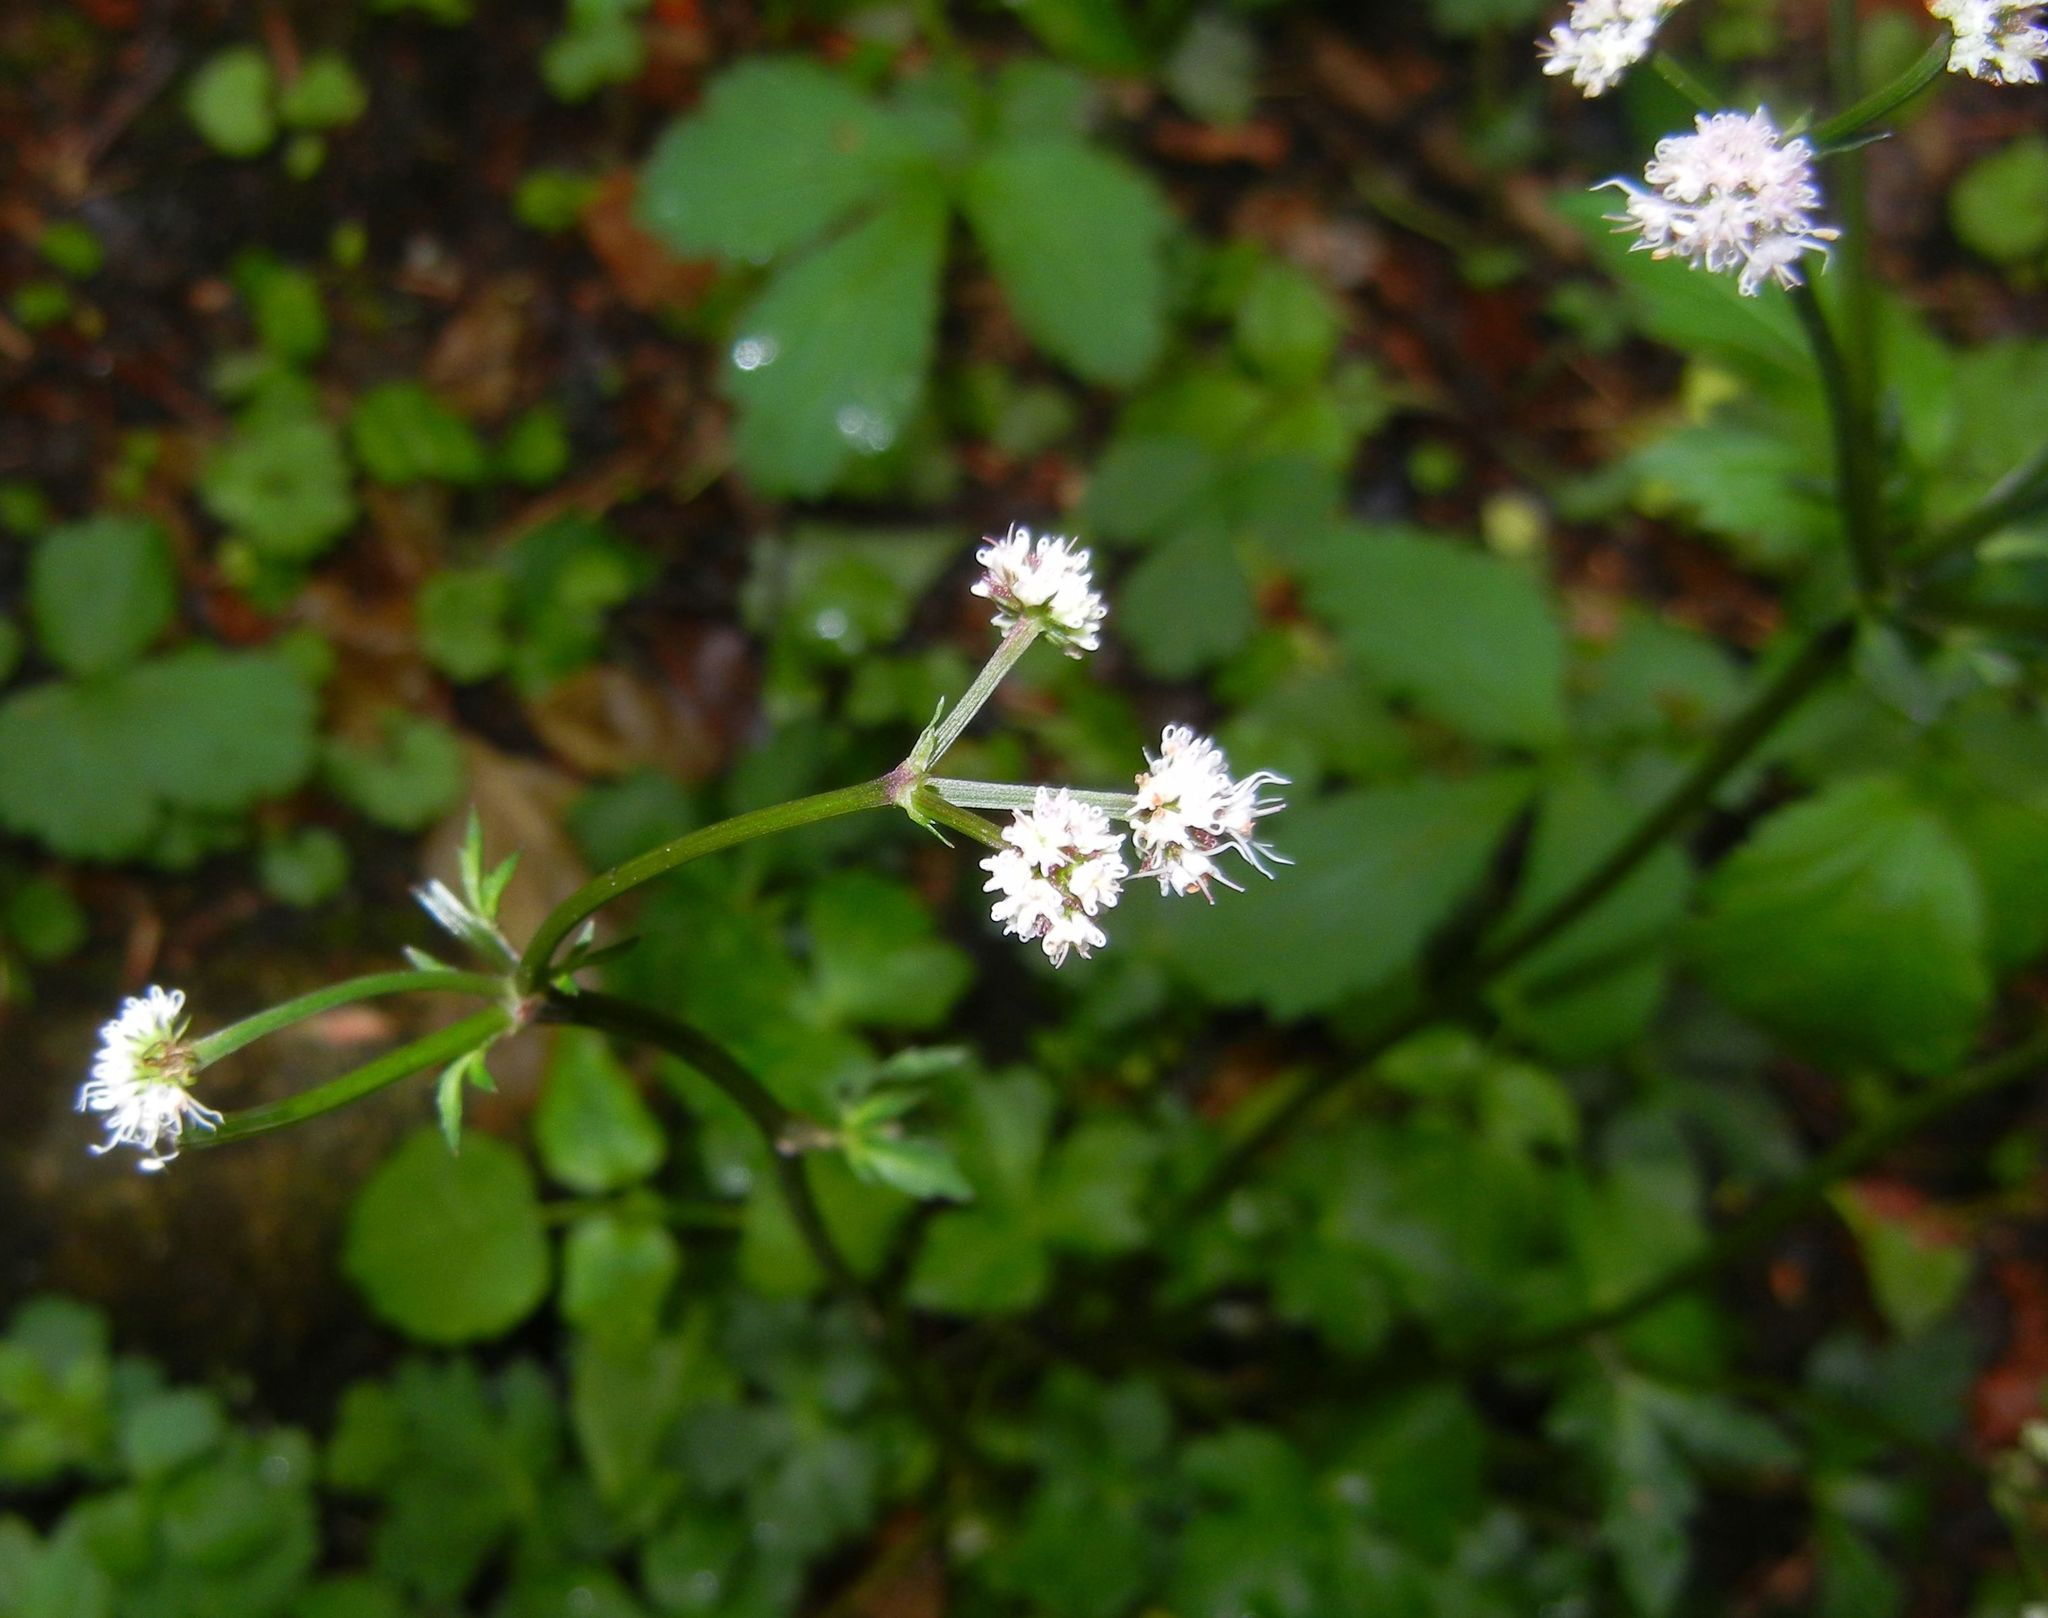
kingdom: Plantae
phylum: Tracheophyta
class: Magnoliopsida
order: Apiales
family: Apiaceae
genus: Sanicula
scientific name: Sanicula europaea
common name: Sanicle
